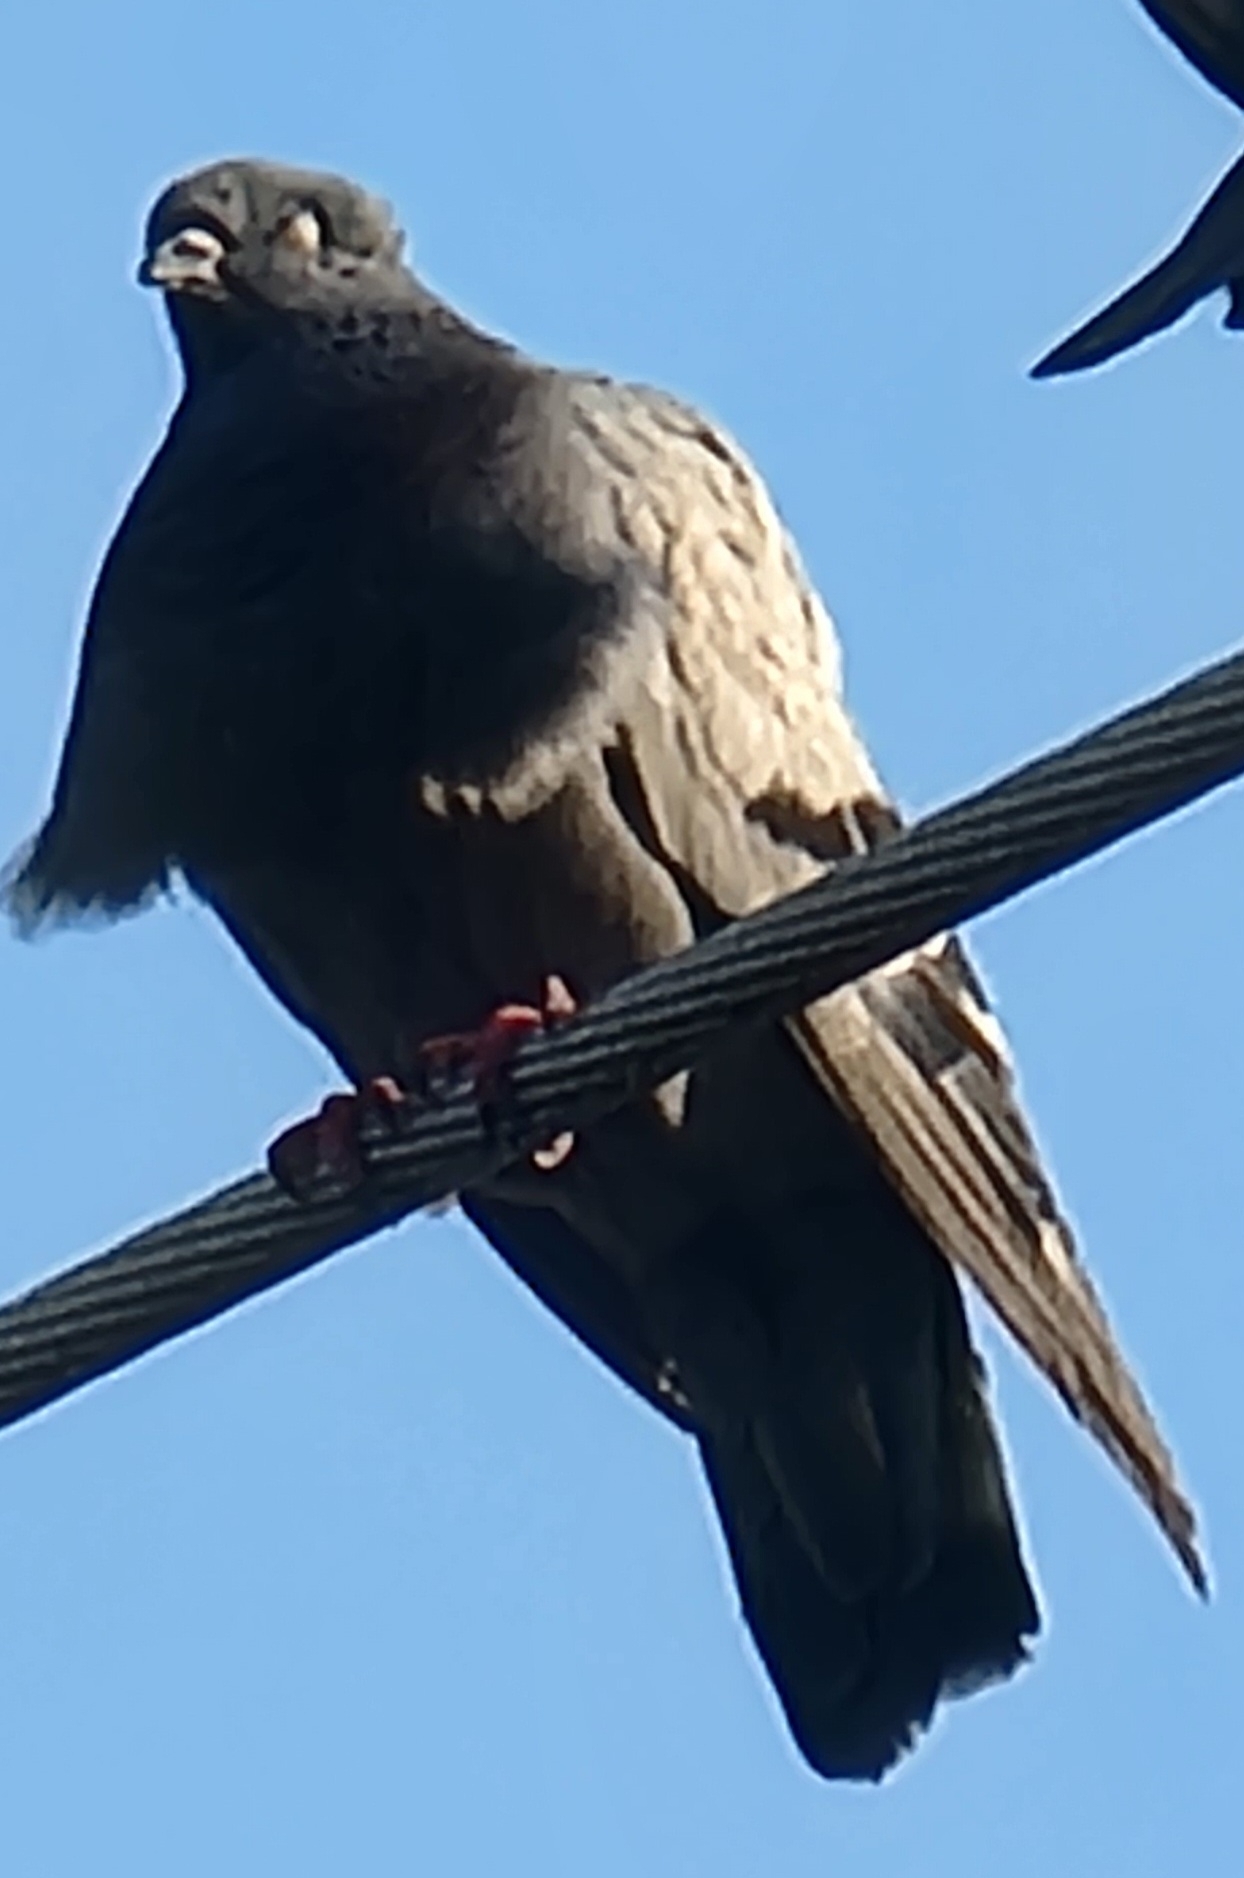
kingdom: Animalia
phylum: Chordata
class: Aves
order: Columbiformes
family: Columbidae
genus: Columba
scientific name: Columba livia
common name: Rock pigeon
